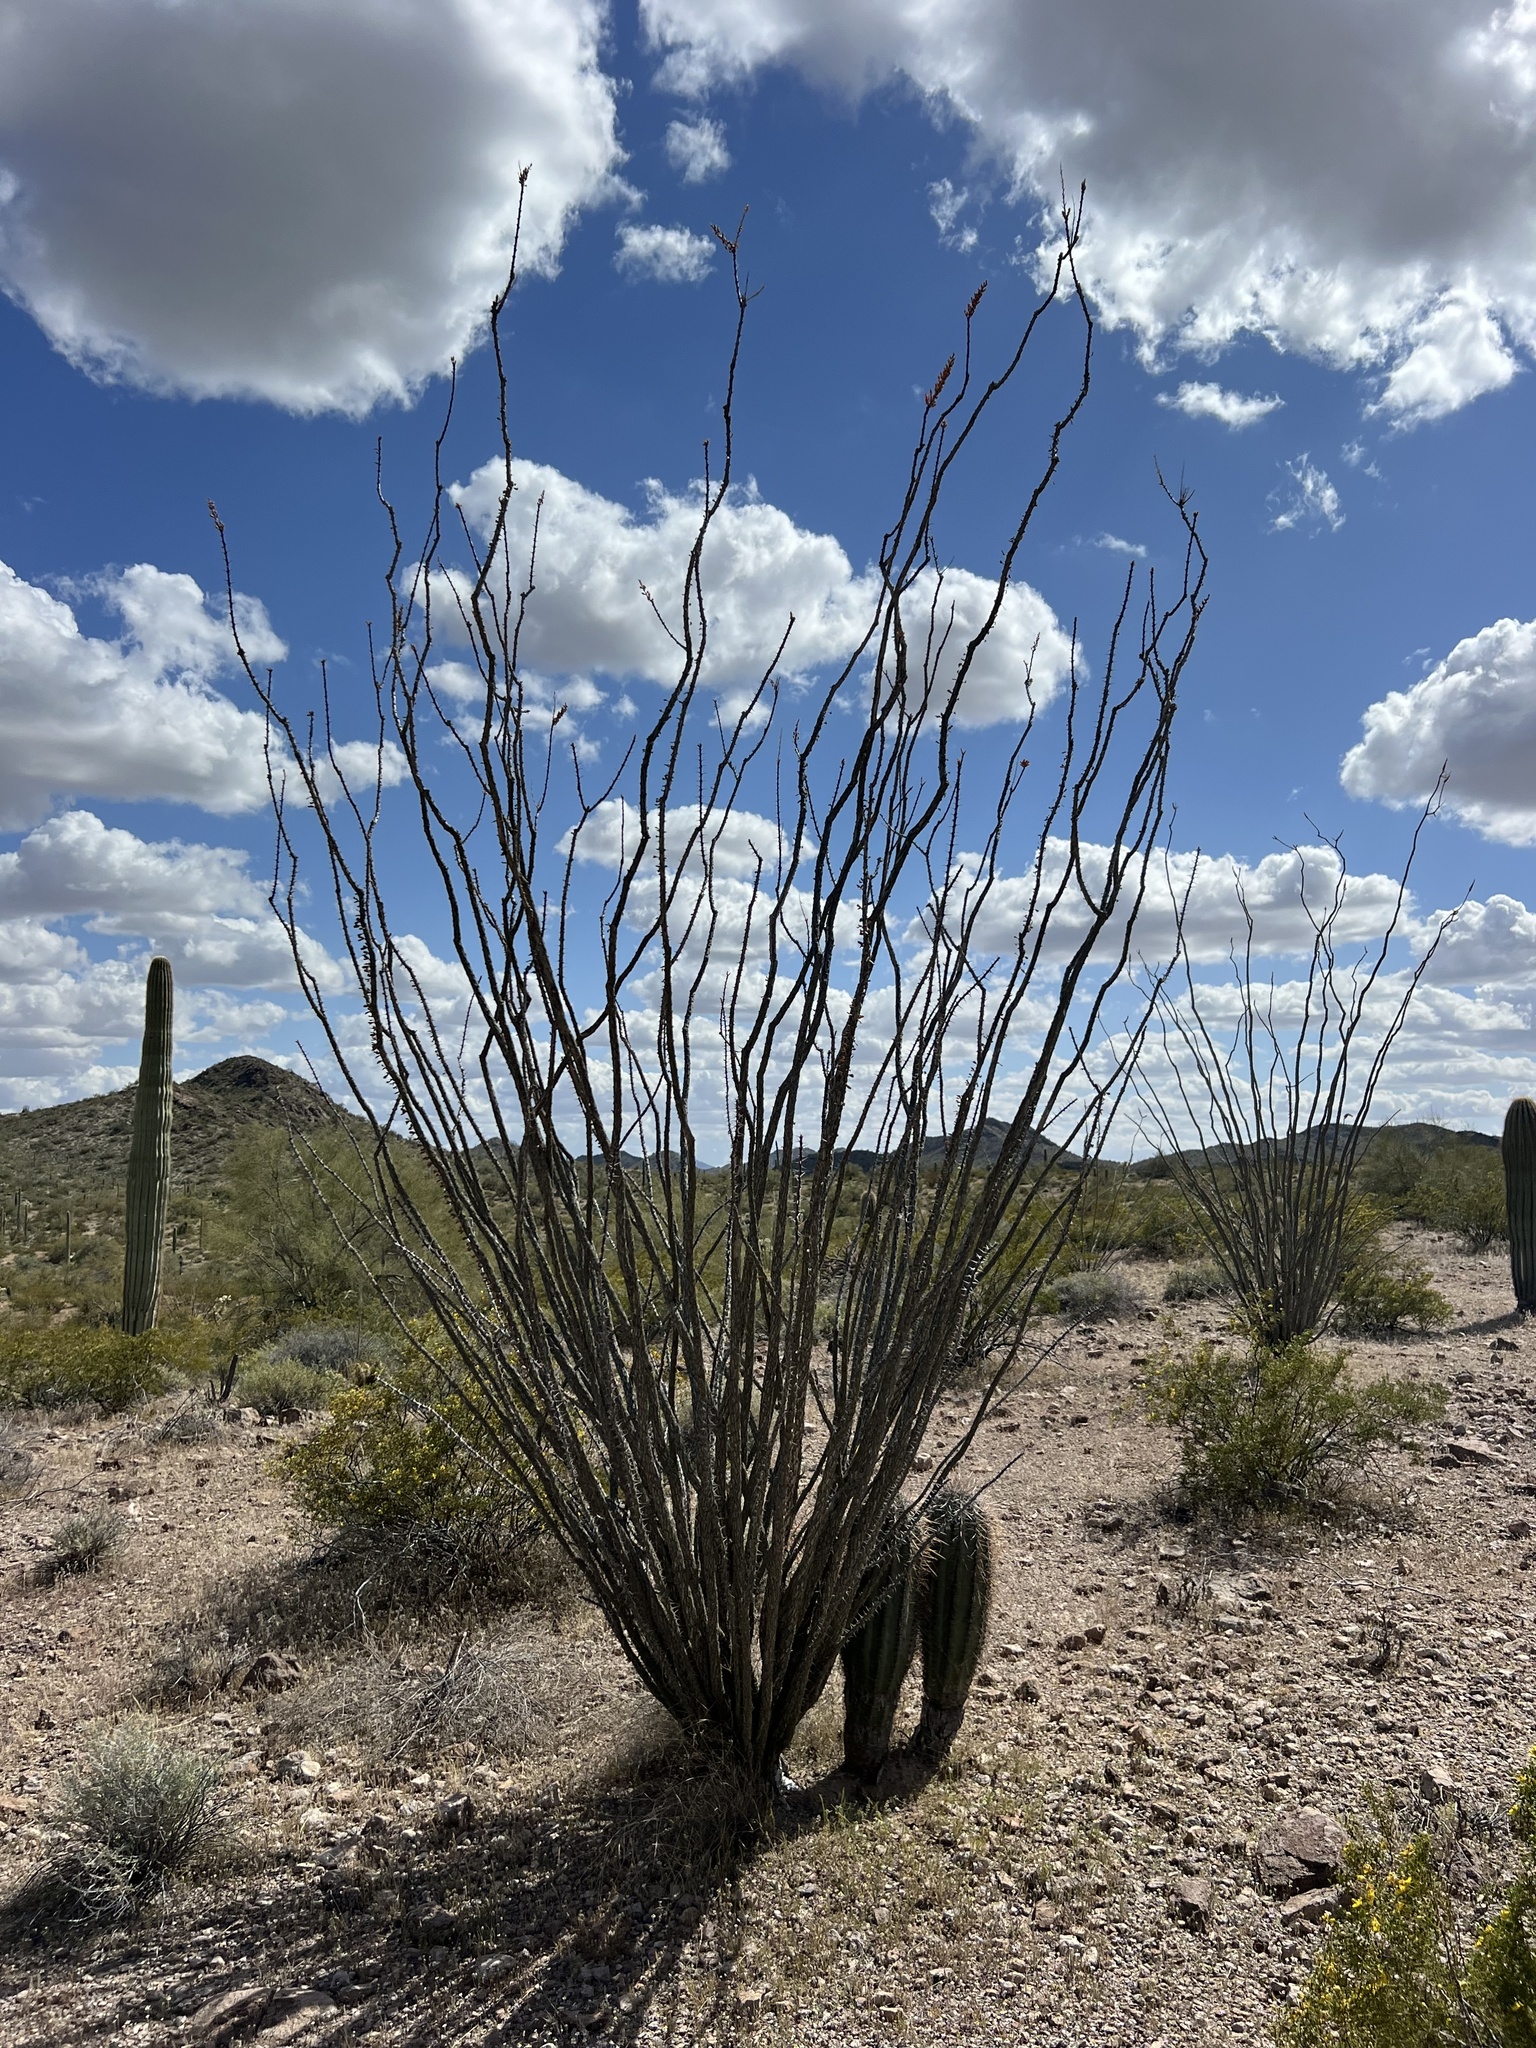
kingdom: Plantae
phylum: Tracheophyta
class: Magnoliopsida
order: Ericales
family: Fouquieriaceae
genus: Fouquieria
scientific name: Fouquieria splendens
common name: Vine-cactus
